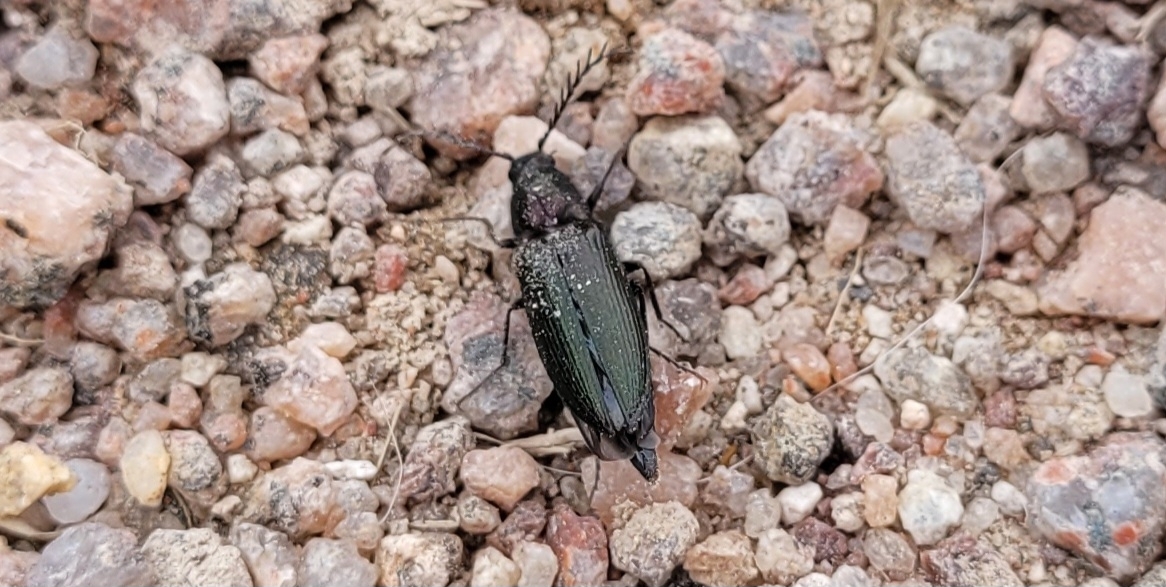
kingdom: Animalia
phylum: Arthropoda
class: Insecta
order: Coleoptera
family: Elateridae
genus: Ctenicera
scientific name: Ctenicera cuprea
